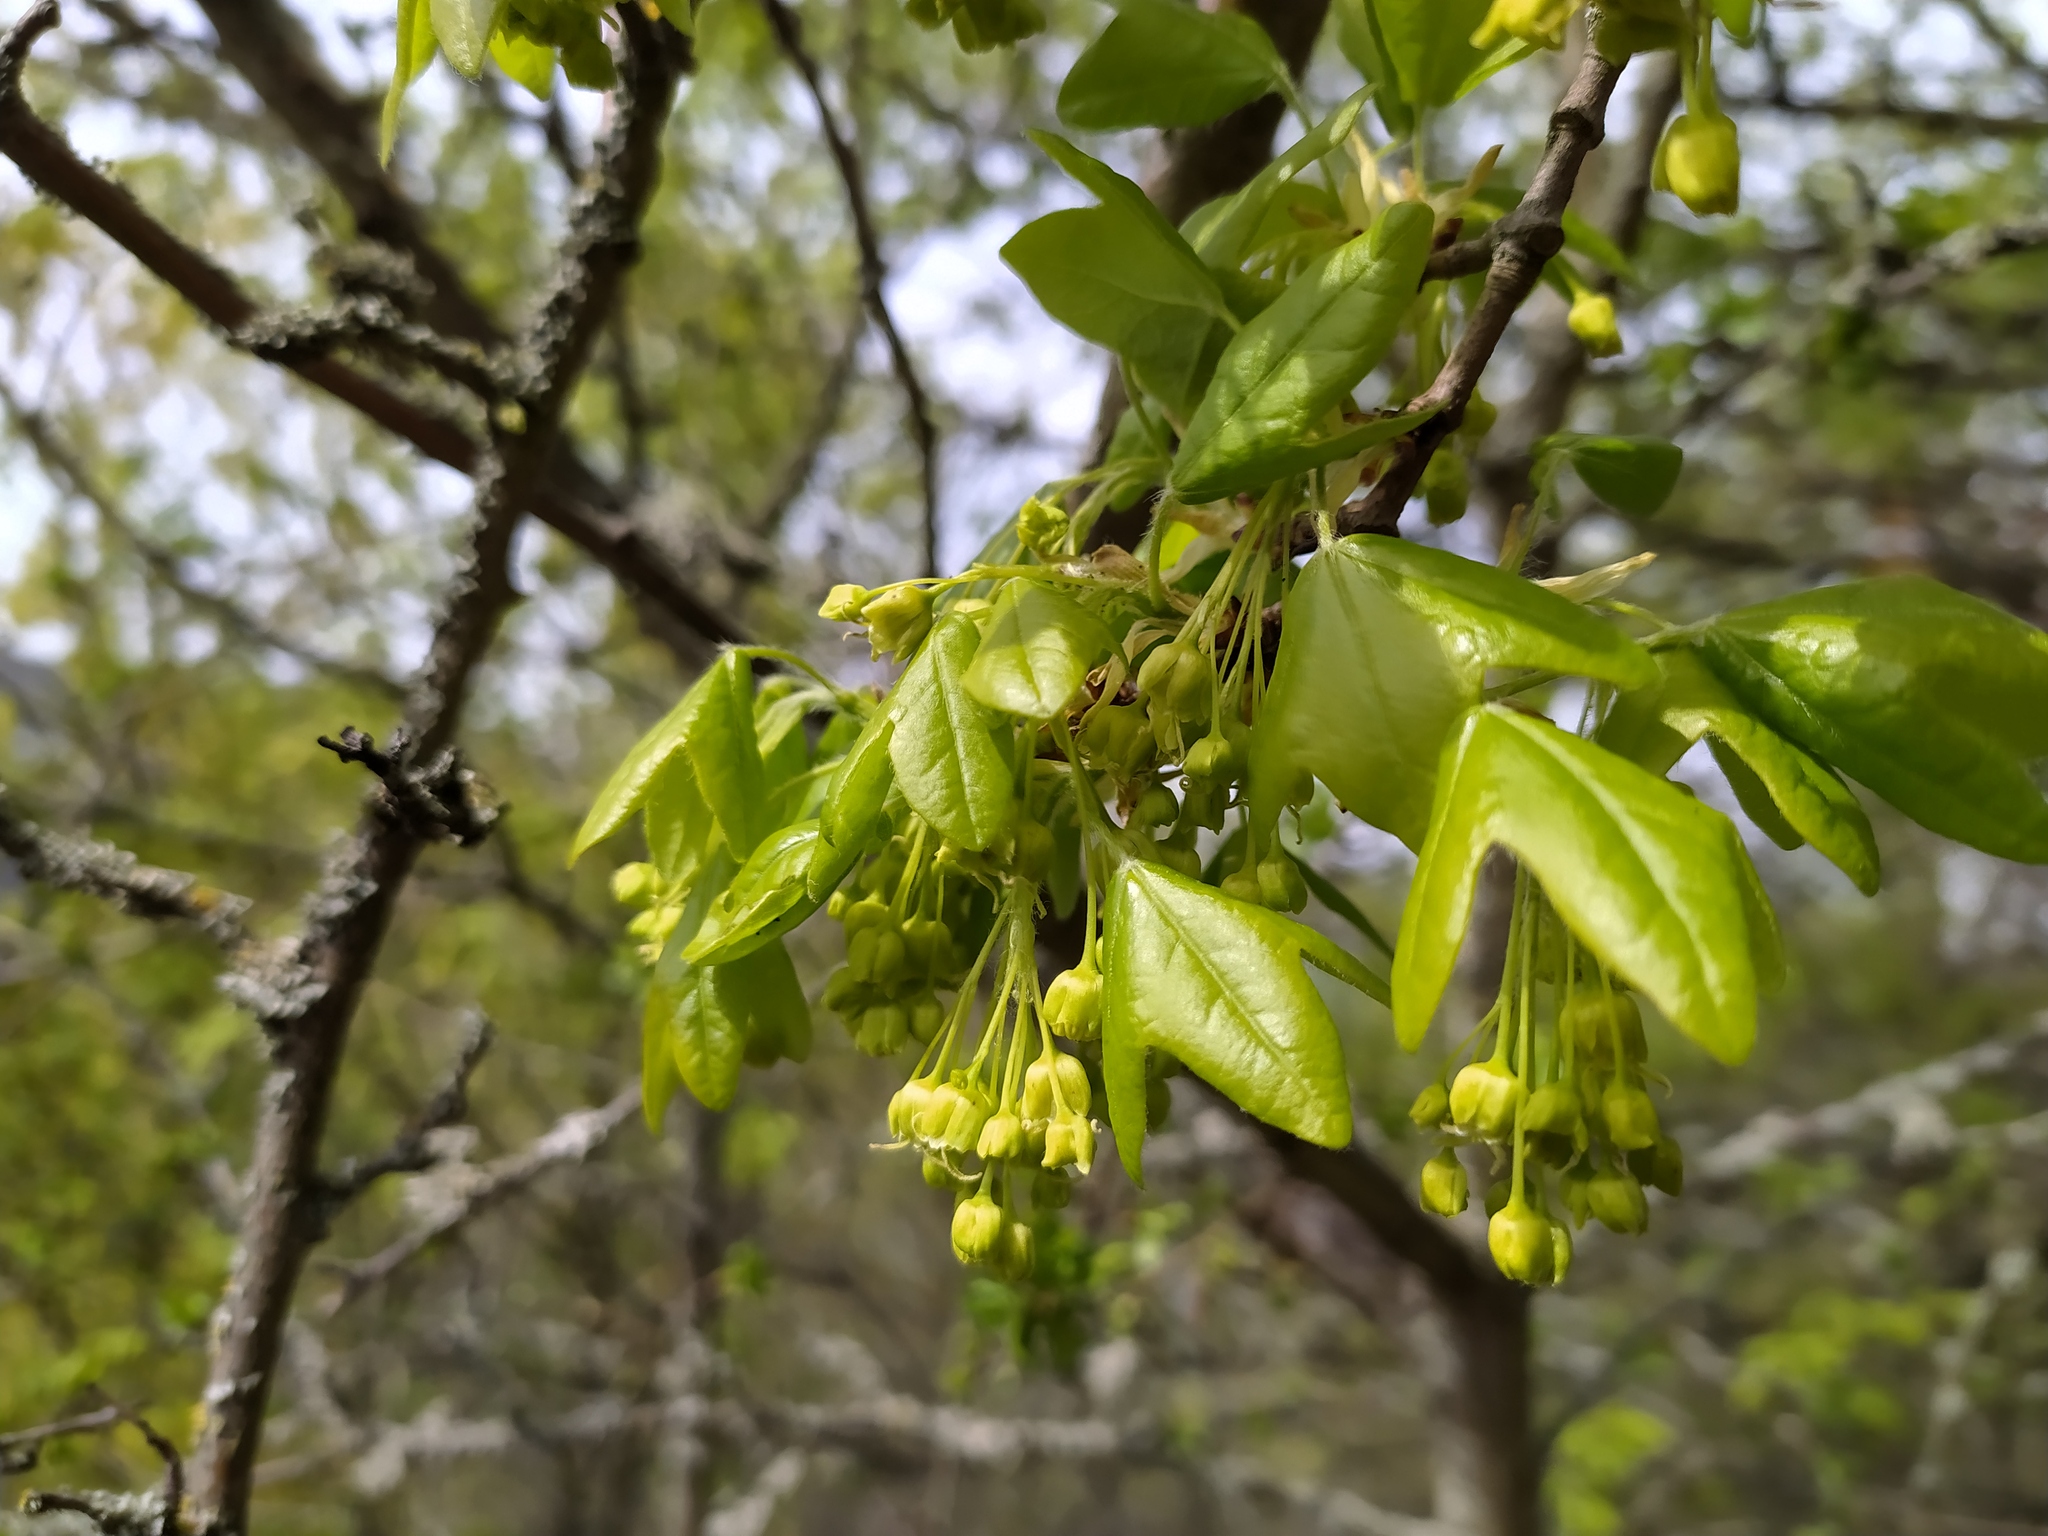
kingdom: Plantae
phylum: Tracheophyta
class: Magnoliopsida
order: Sapindales
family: Sapindaceae
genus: Acer
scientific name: Acer monspessulanum
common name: Montpellier maple
